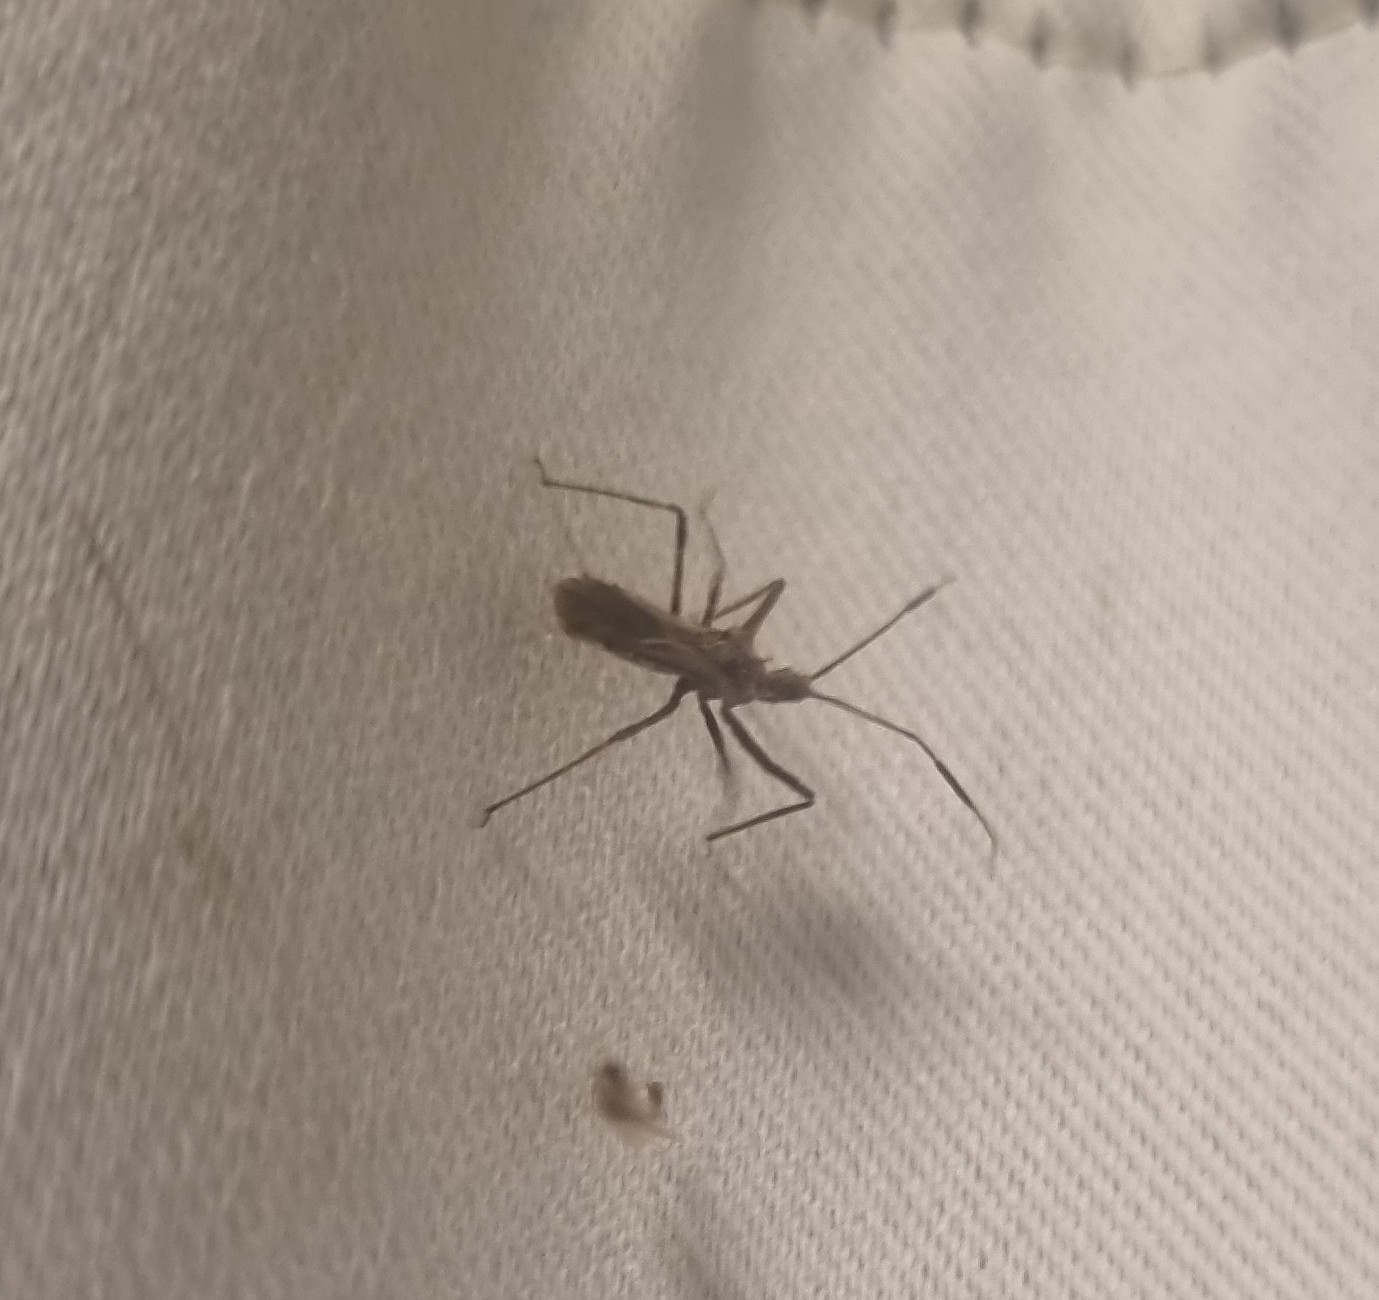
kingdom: Animalia
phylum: Arthropoda
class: Insecta
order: Hemiptera
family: Reduviidae
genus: Atrachelus
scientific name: Atrachelus cinereus
